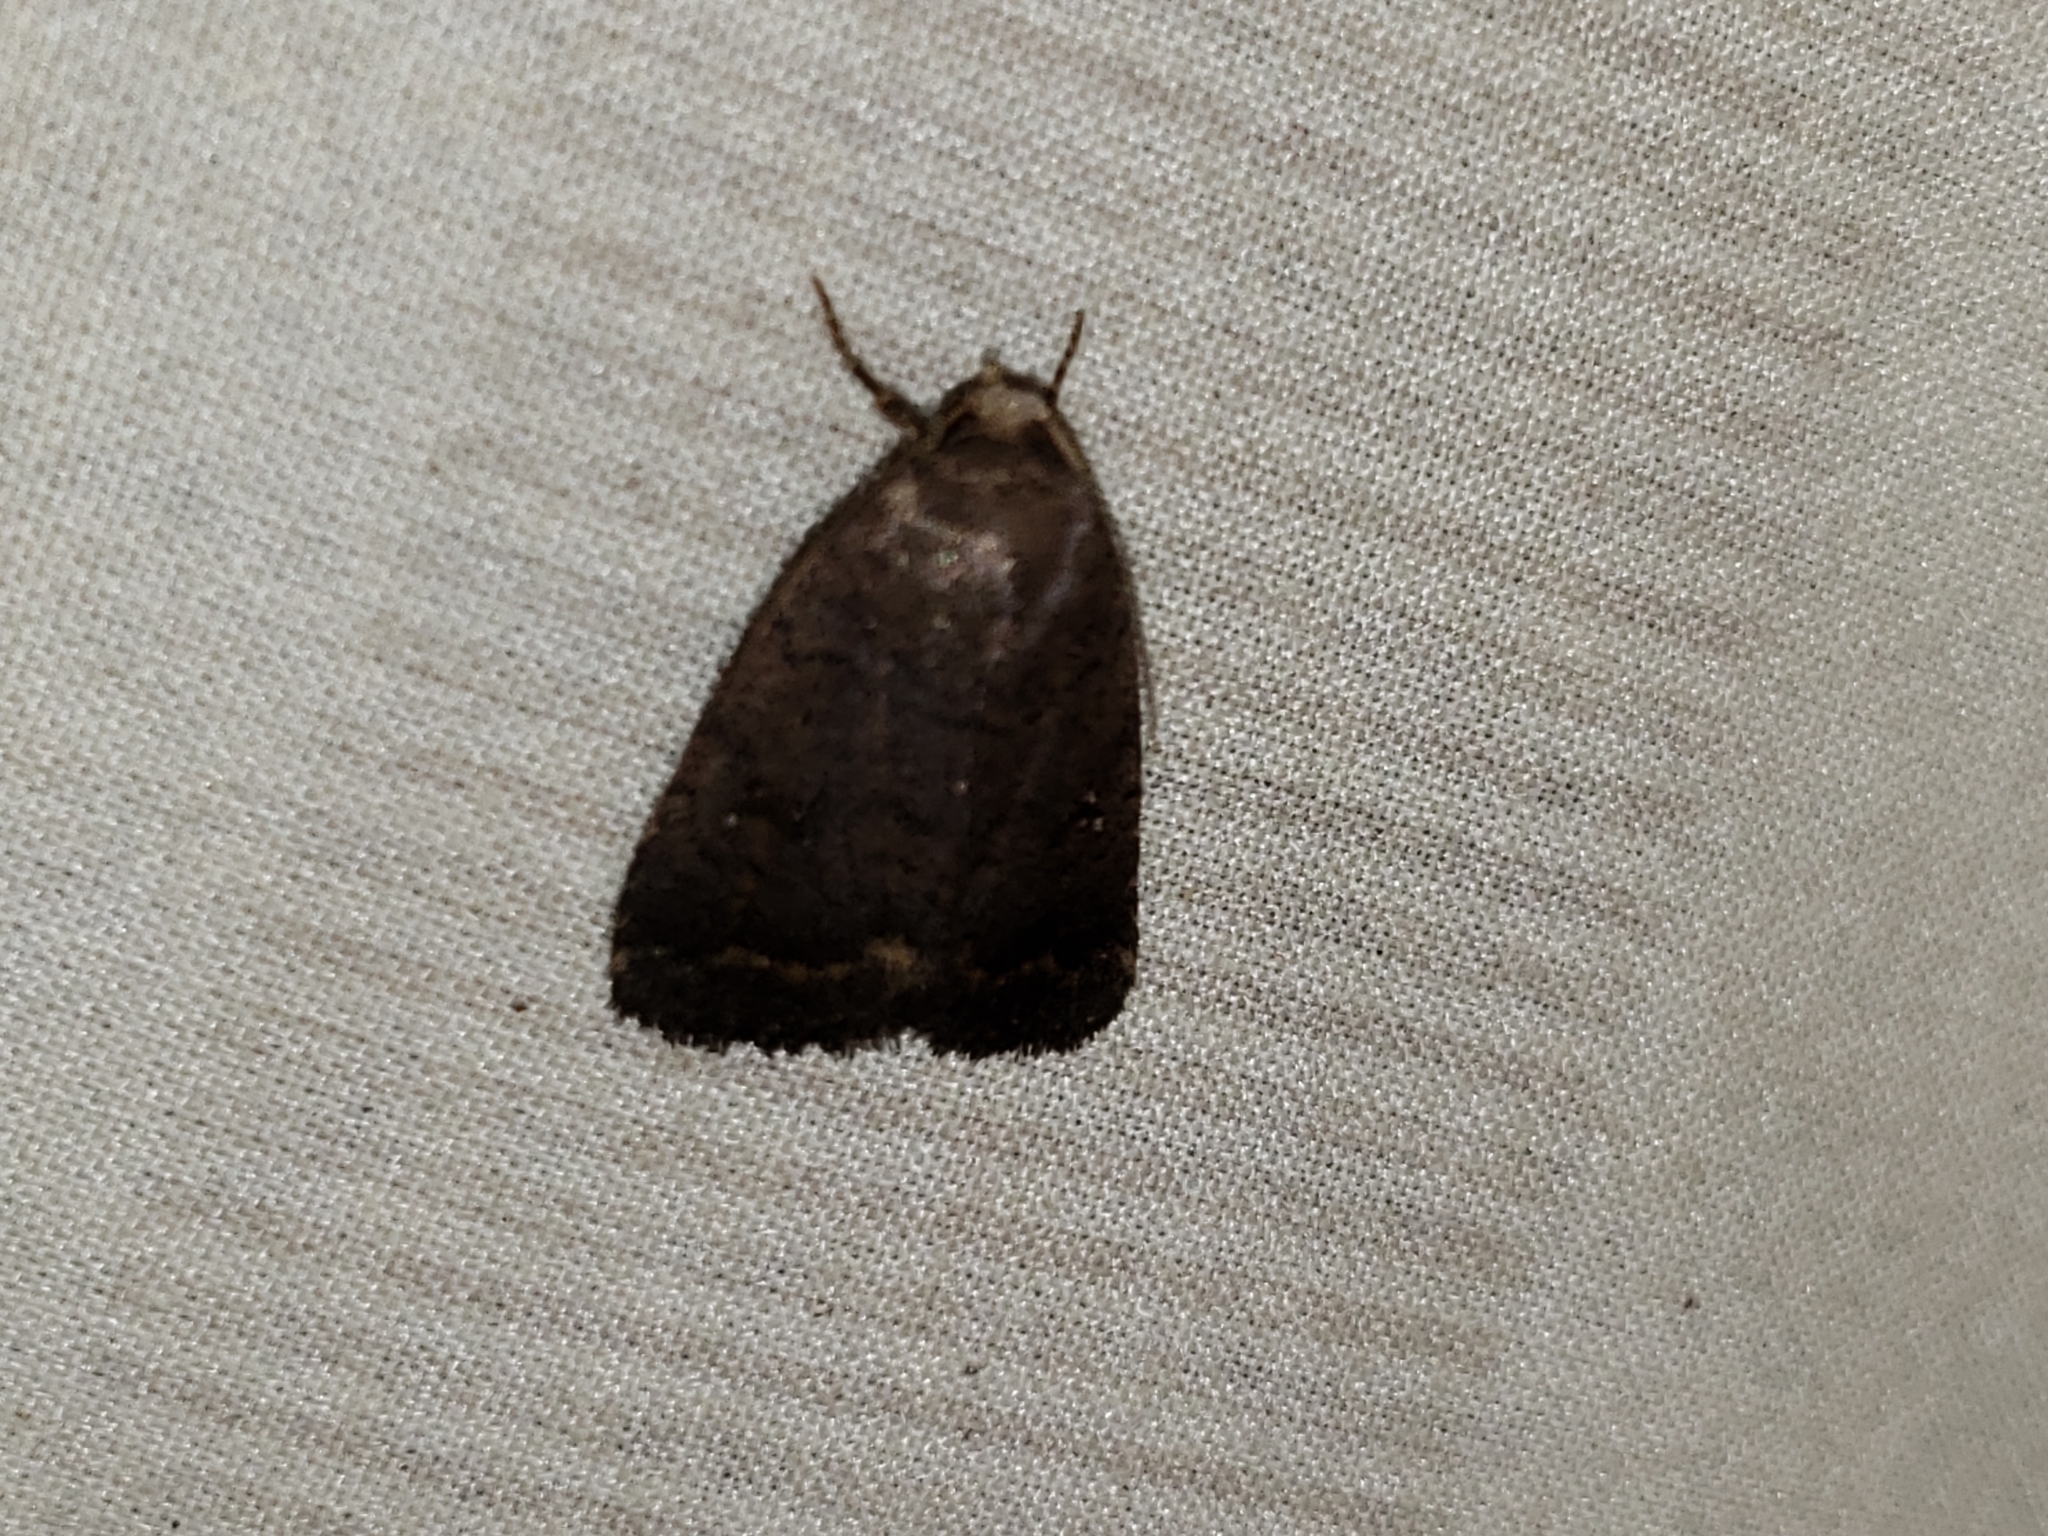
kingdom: Animalia
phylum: Arthropoda
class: Insecta
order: Lepidoptera
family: Noctuidae
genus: Athetis
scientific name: Athetis tarda
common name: Slowpoke moth
